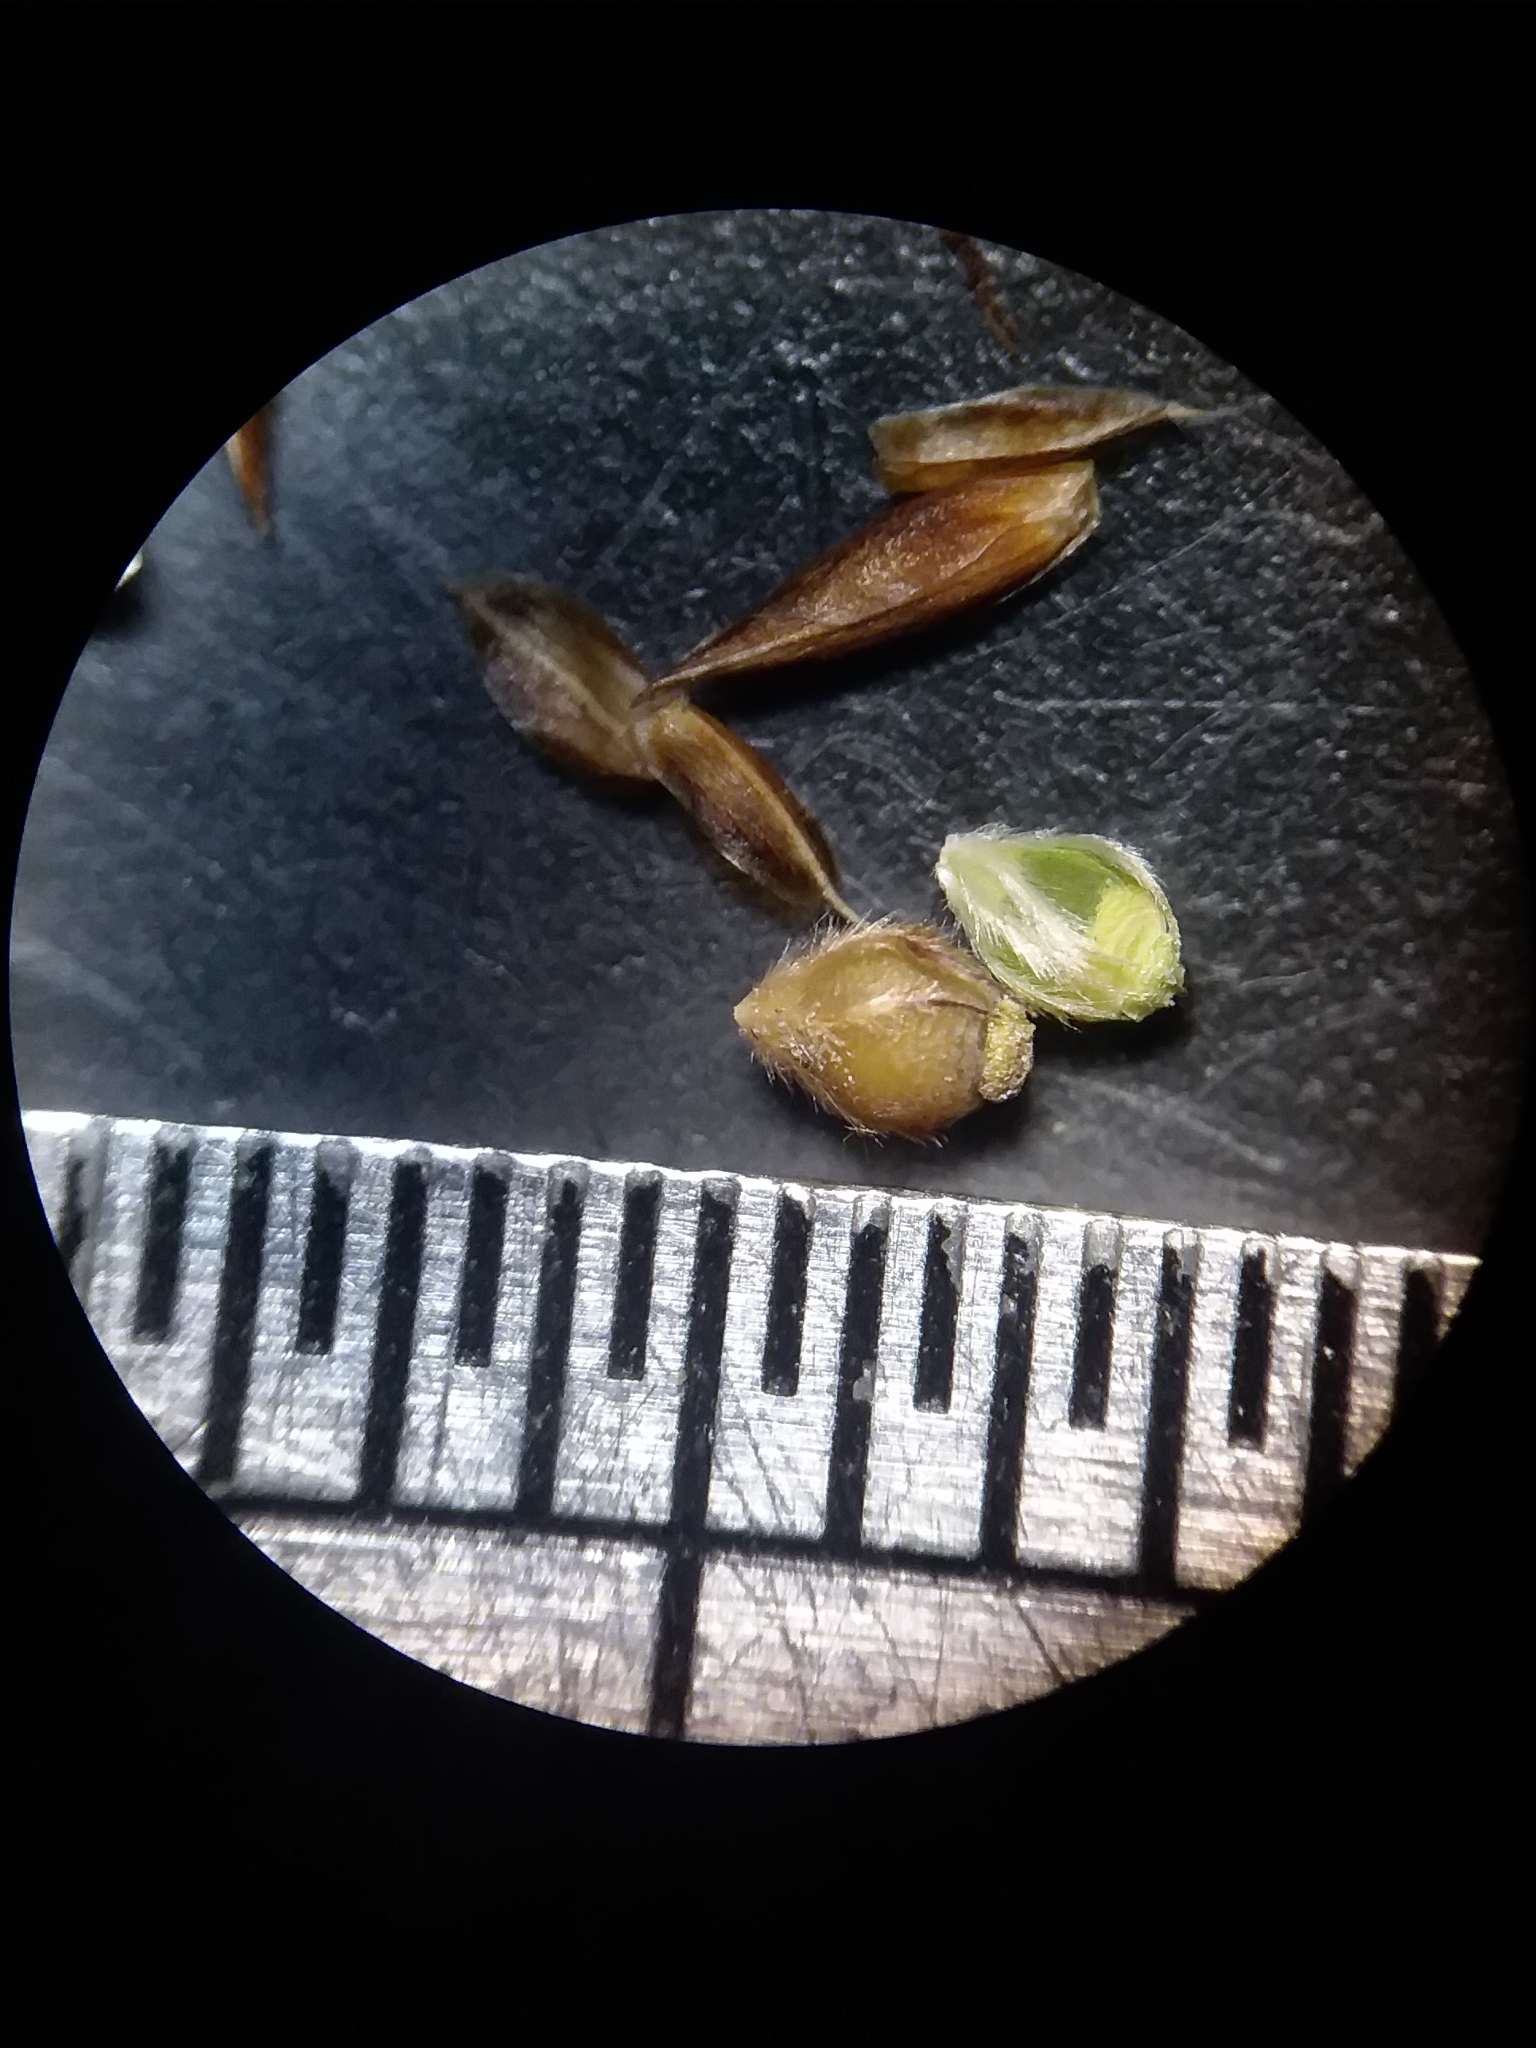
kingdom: Plantae
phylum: Tracheophyta
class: Liliopsida
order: Poales
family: Cyperaceae
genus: Rhynchospora
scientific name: Rhynchospora plumosa
